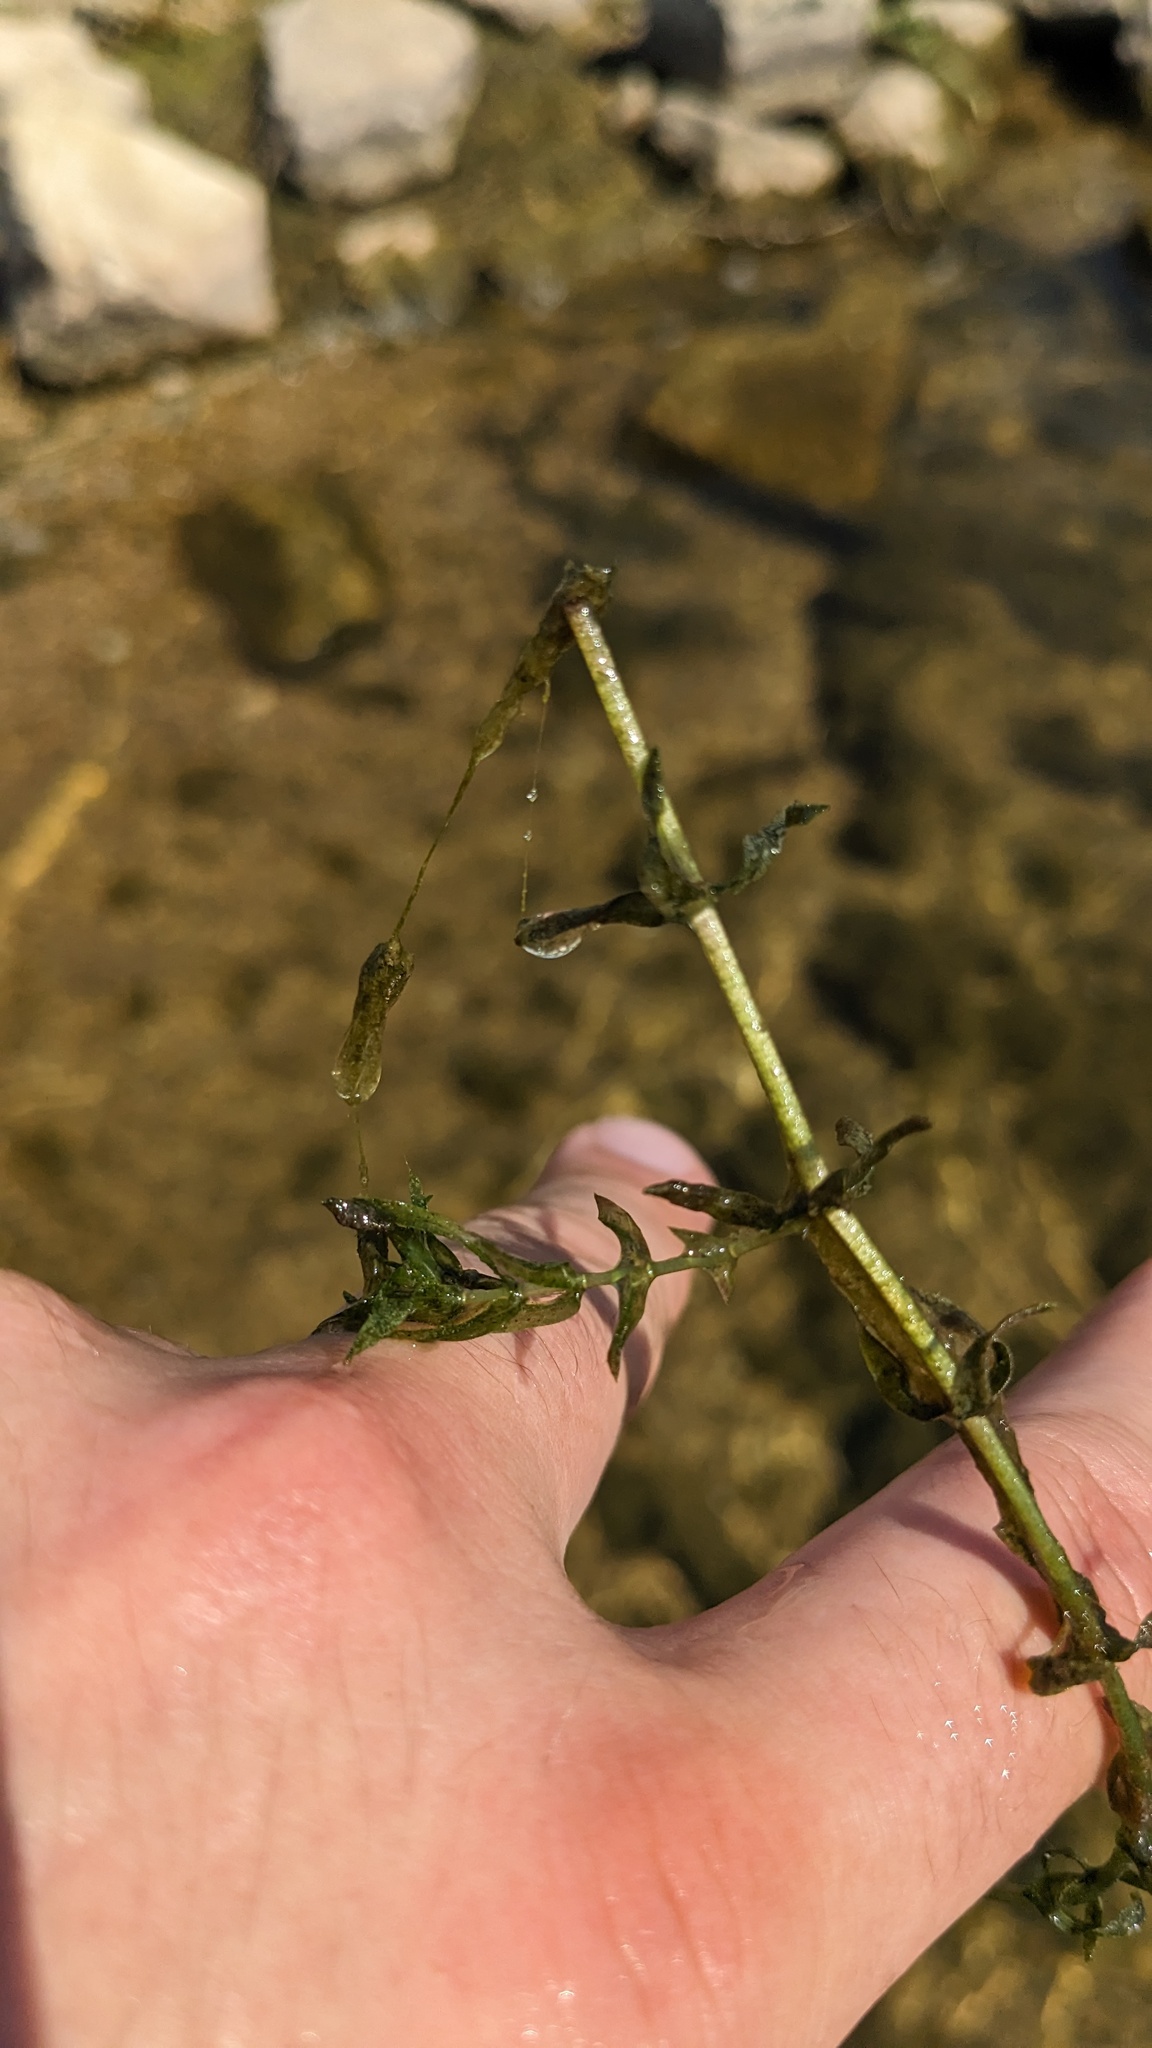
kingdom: Plantae
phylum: Tracheophyta
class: Liliopsida
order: Alismatales
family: Hydrocharitaceae
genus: Elodea
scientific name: Elodea canadensis
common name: Canadian waterweed
